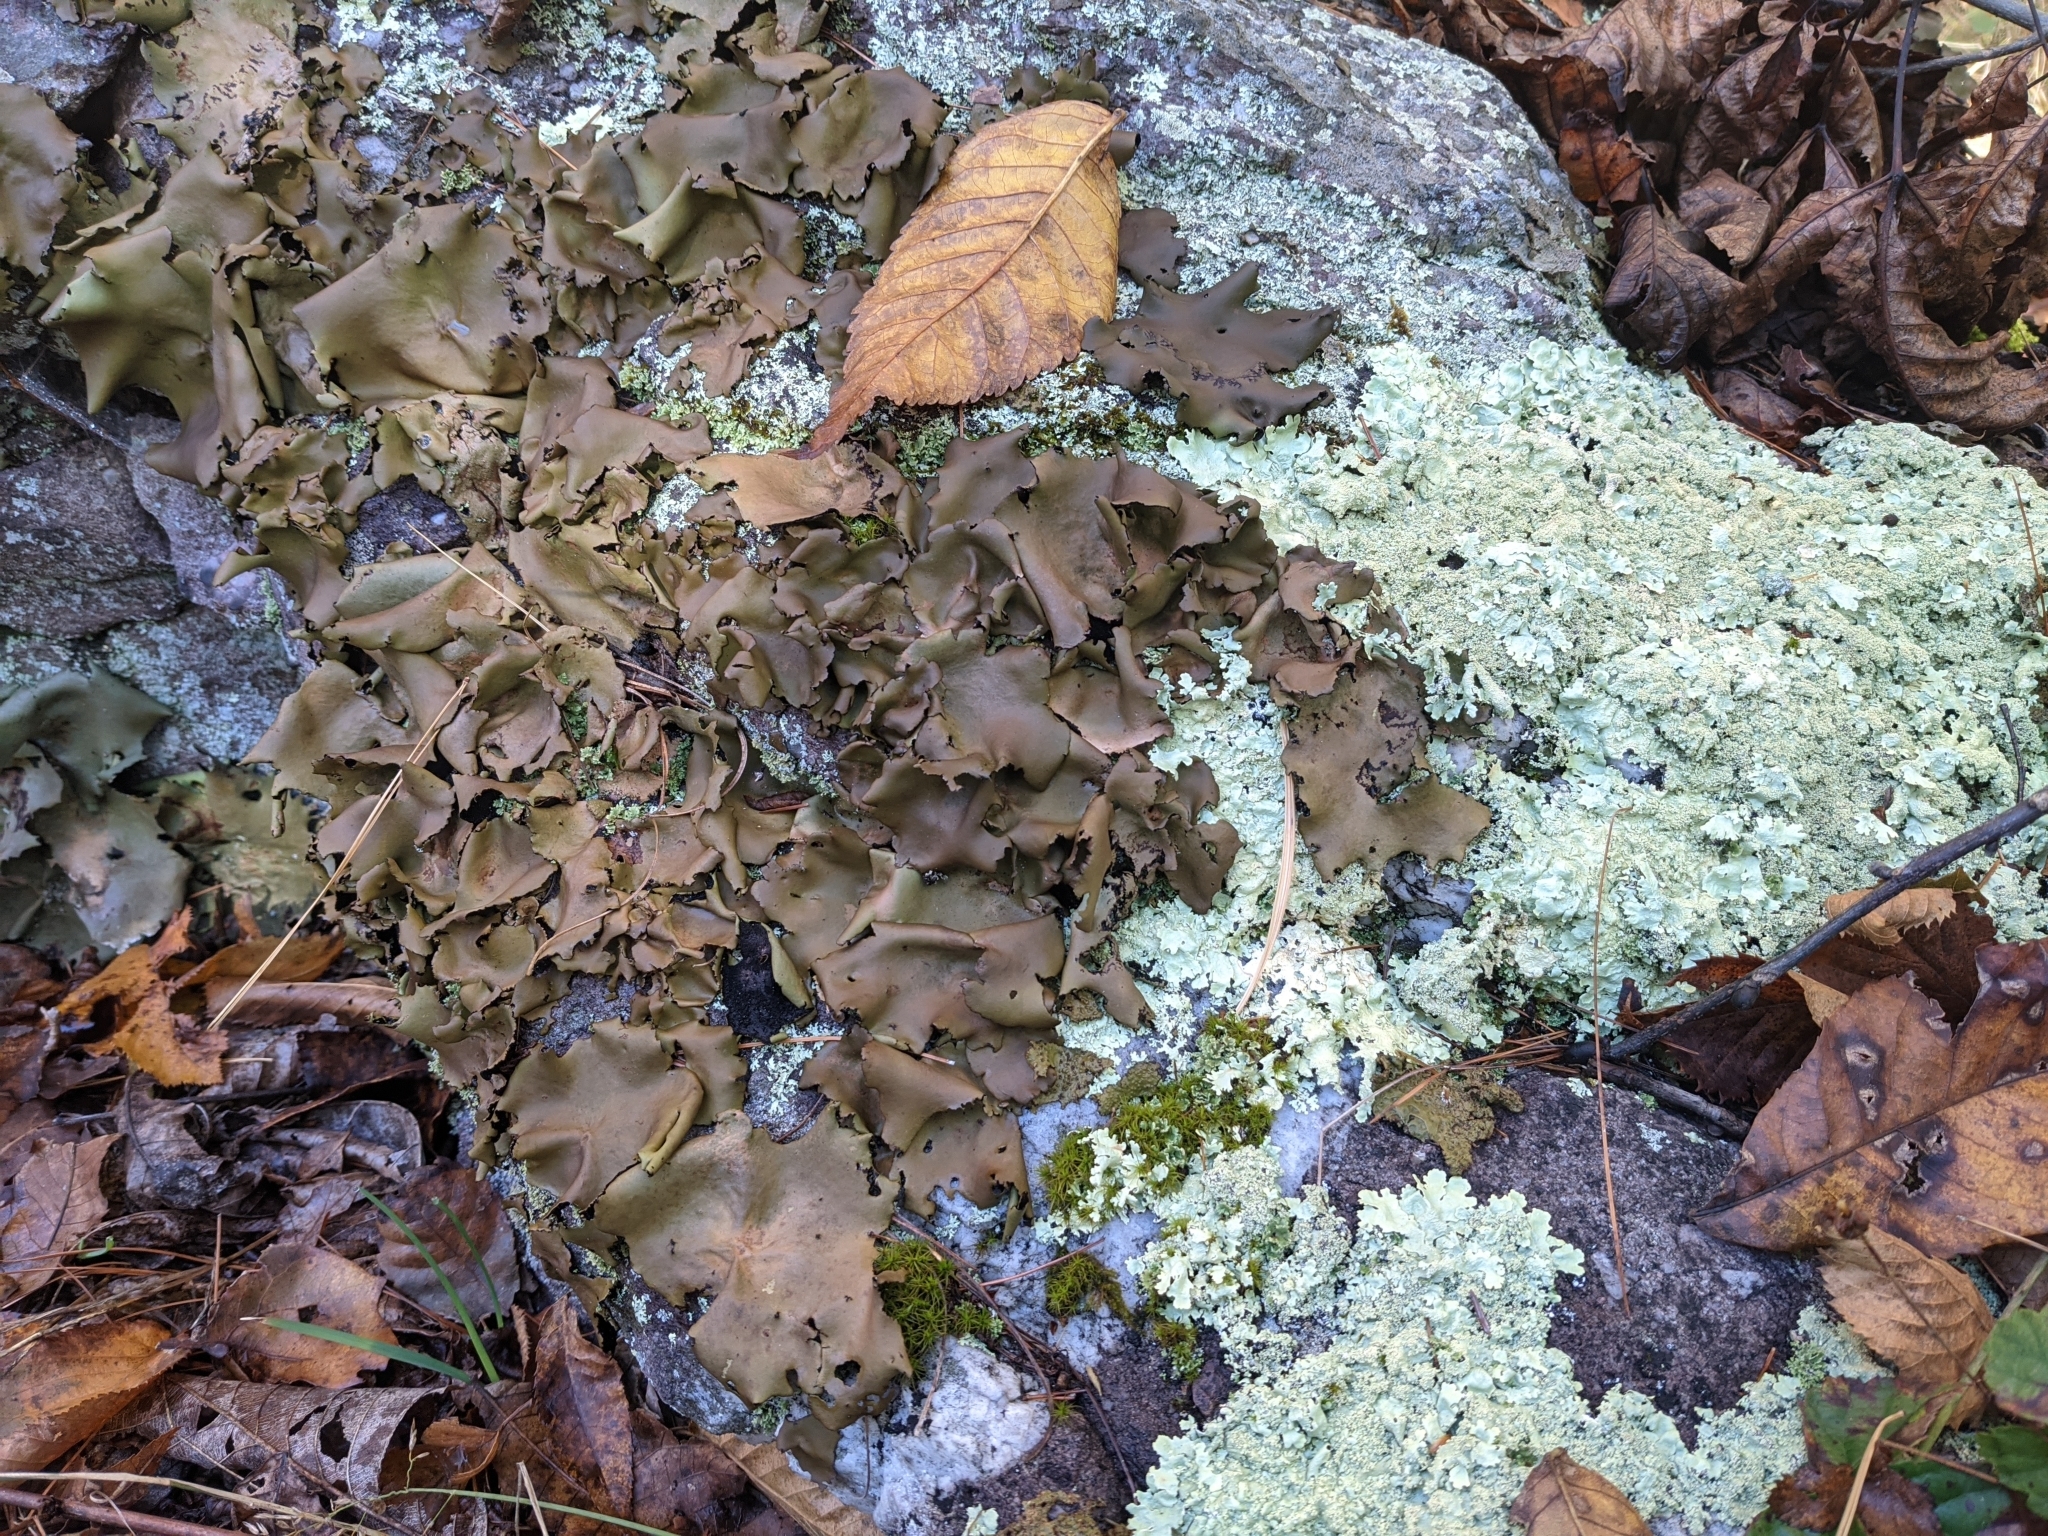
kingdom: Fungi
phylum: Ascomycota
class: Lecanoromycetes
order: Umbilicariales
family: Umbilicariaceae
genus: Umbilicaria
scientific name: Umbilicaria mammulata
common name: Smooth rock tripe
